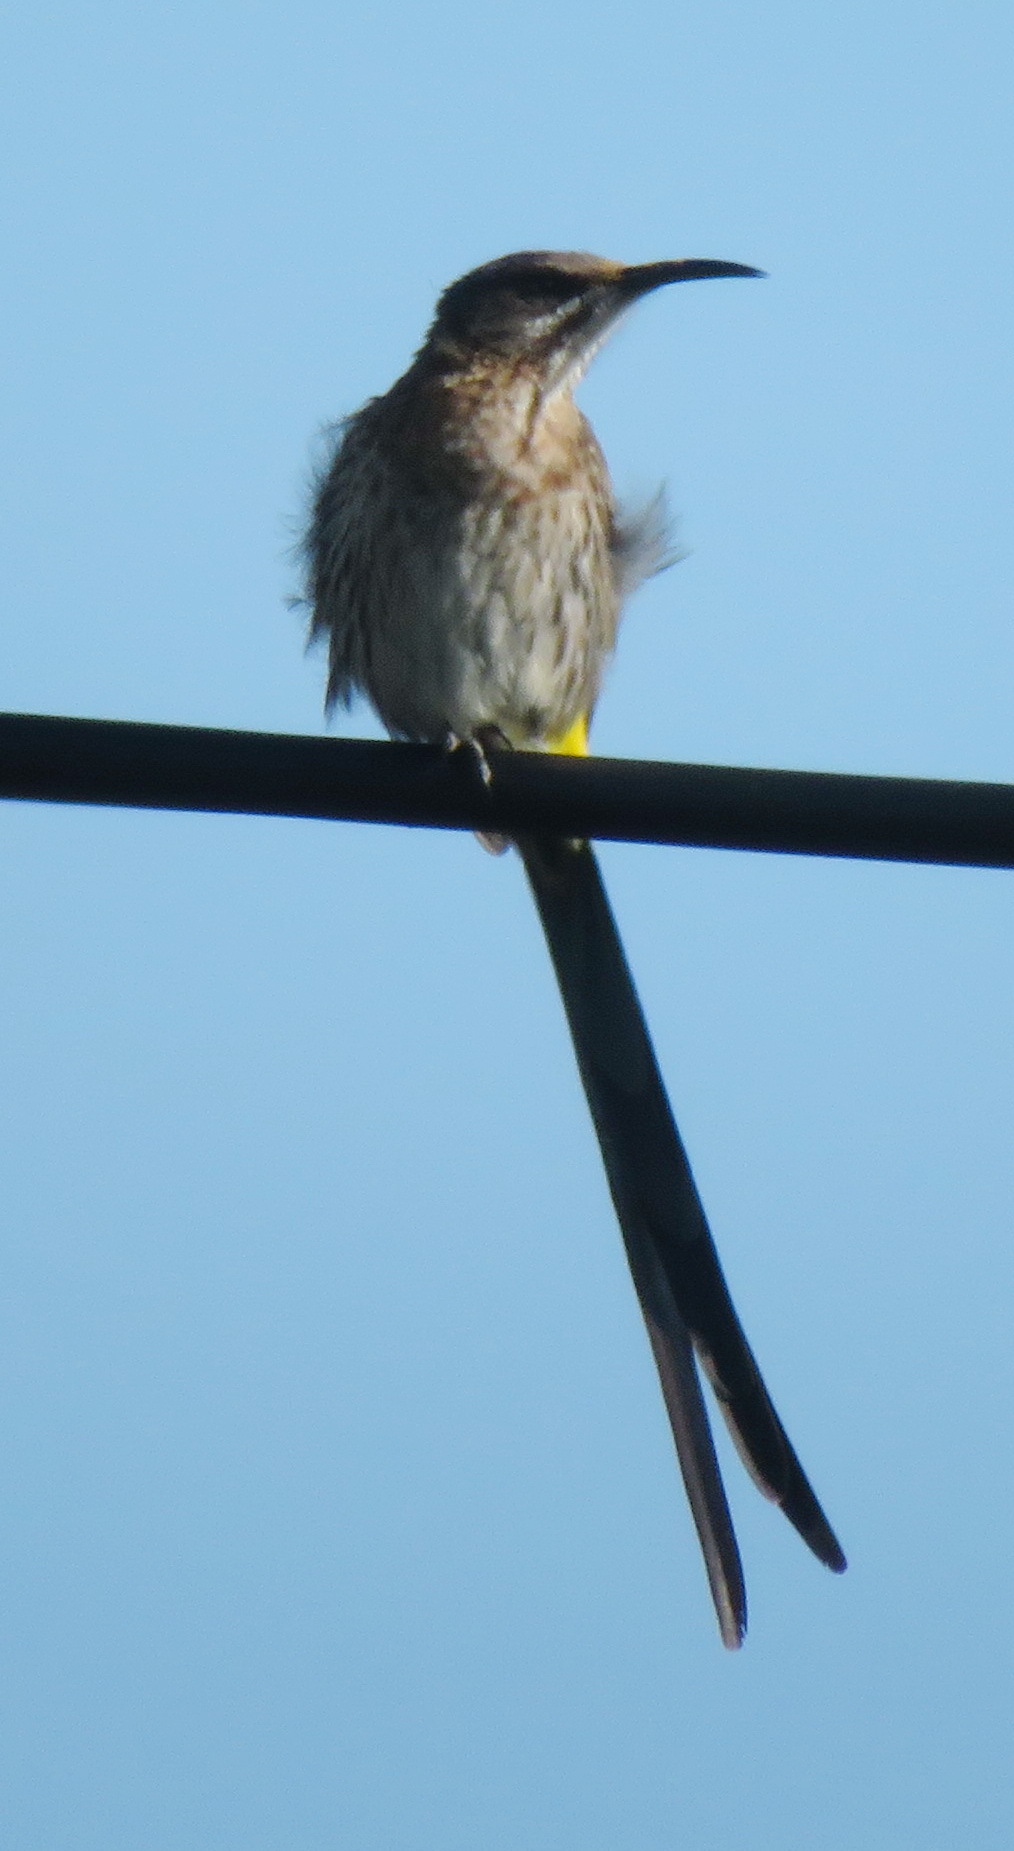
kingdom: Animalia
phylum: Chordata
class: Aves
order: Passeriformes
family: Promeropidae
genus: Promerops
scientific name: Promerops cafer
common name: Cape sugarbird
